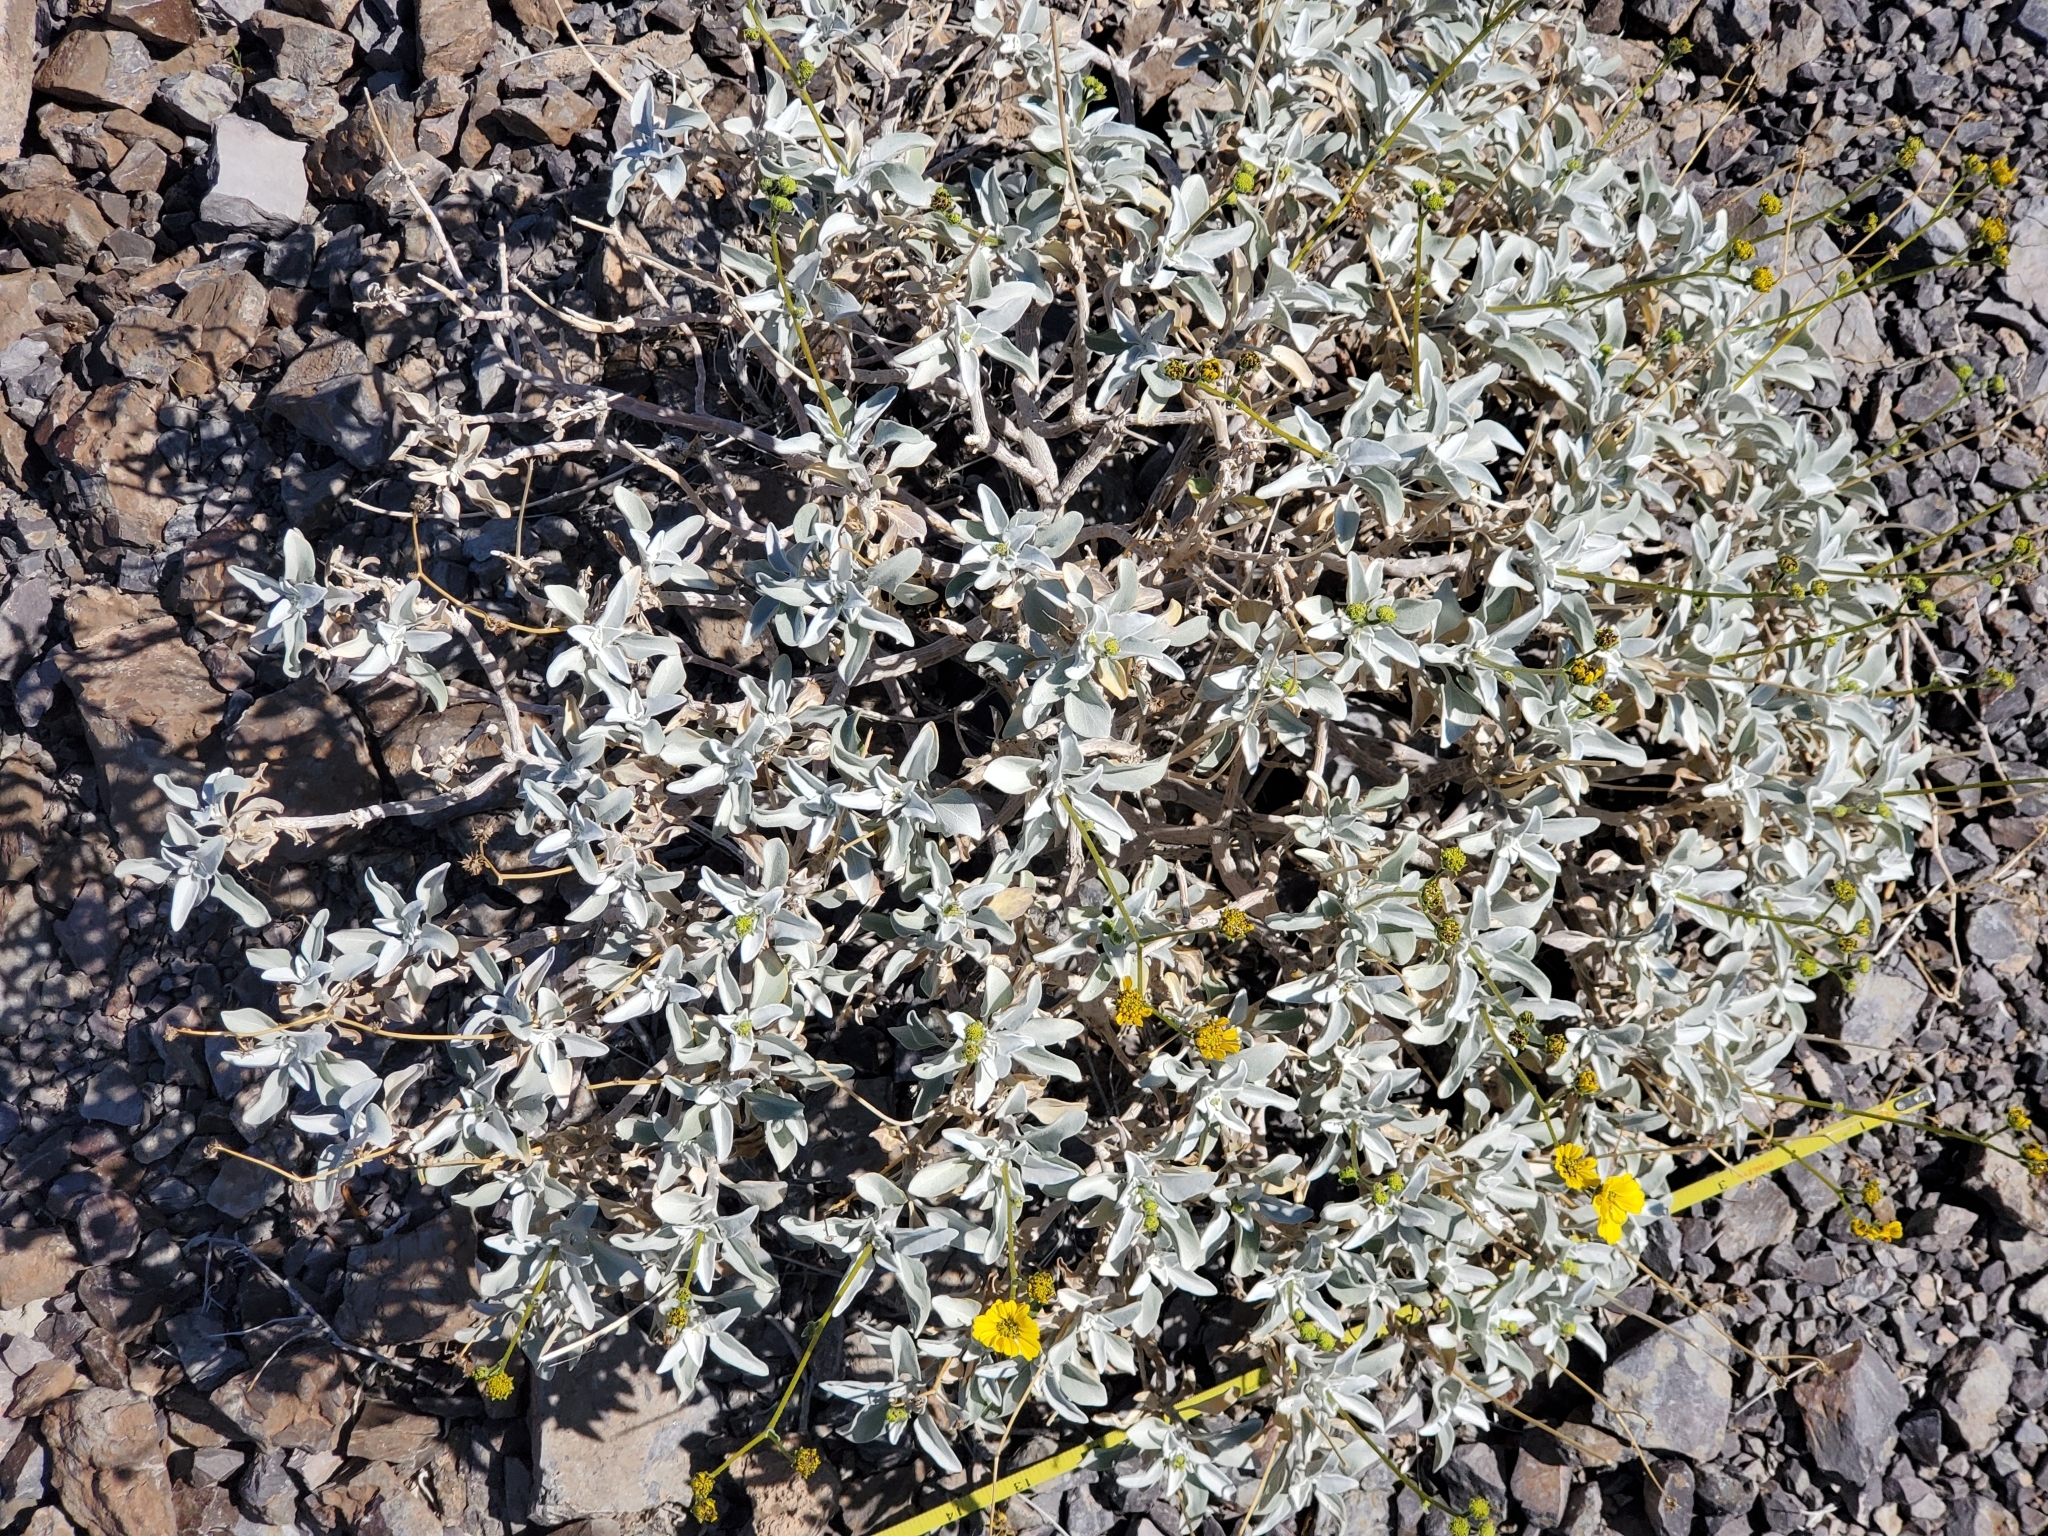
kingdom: Plantae
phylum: Tracheophyta
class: Magnoliopsida
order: Asterales
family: Asteraceae
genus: Encelia
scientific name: Encelia farinosa
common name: Brittlebush
